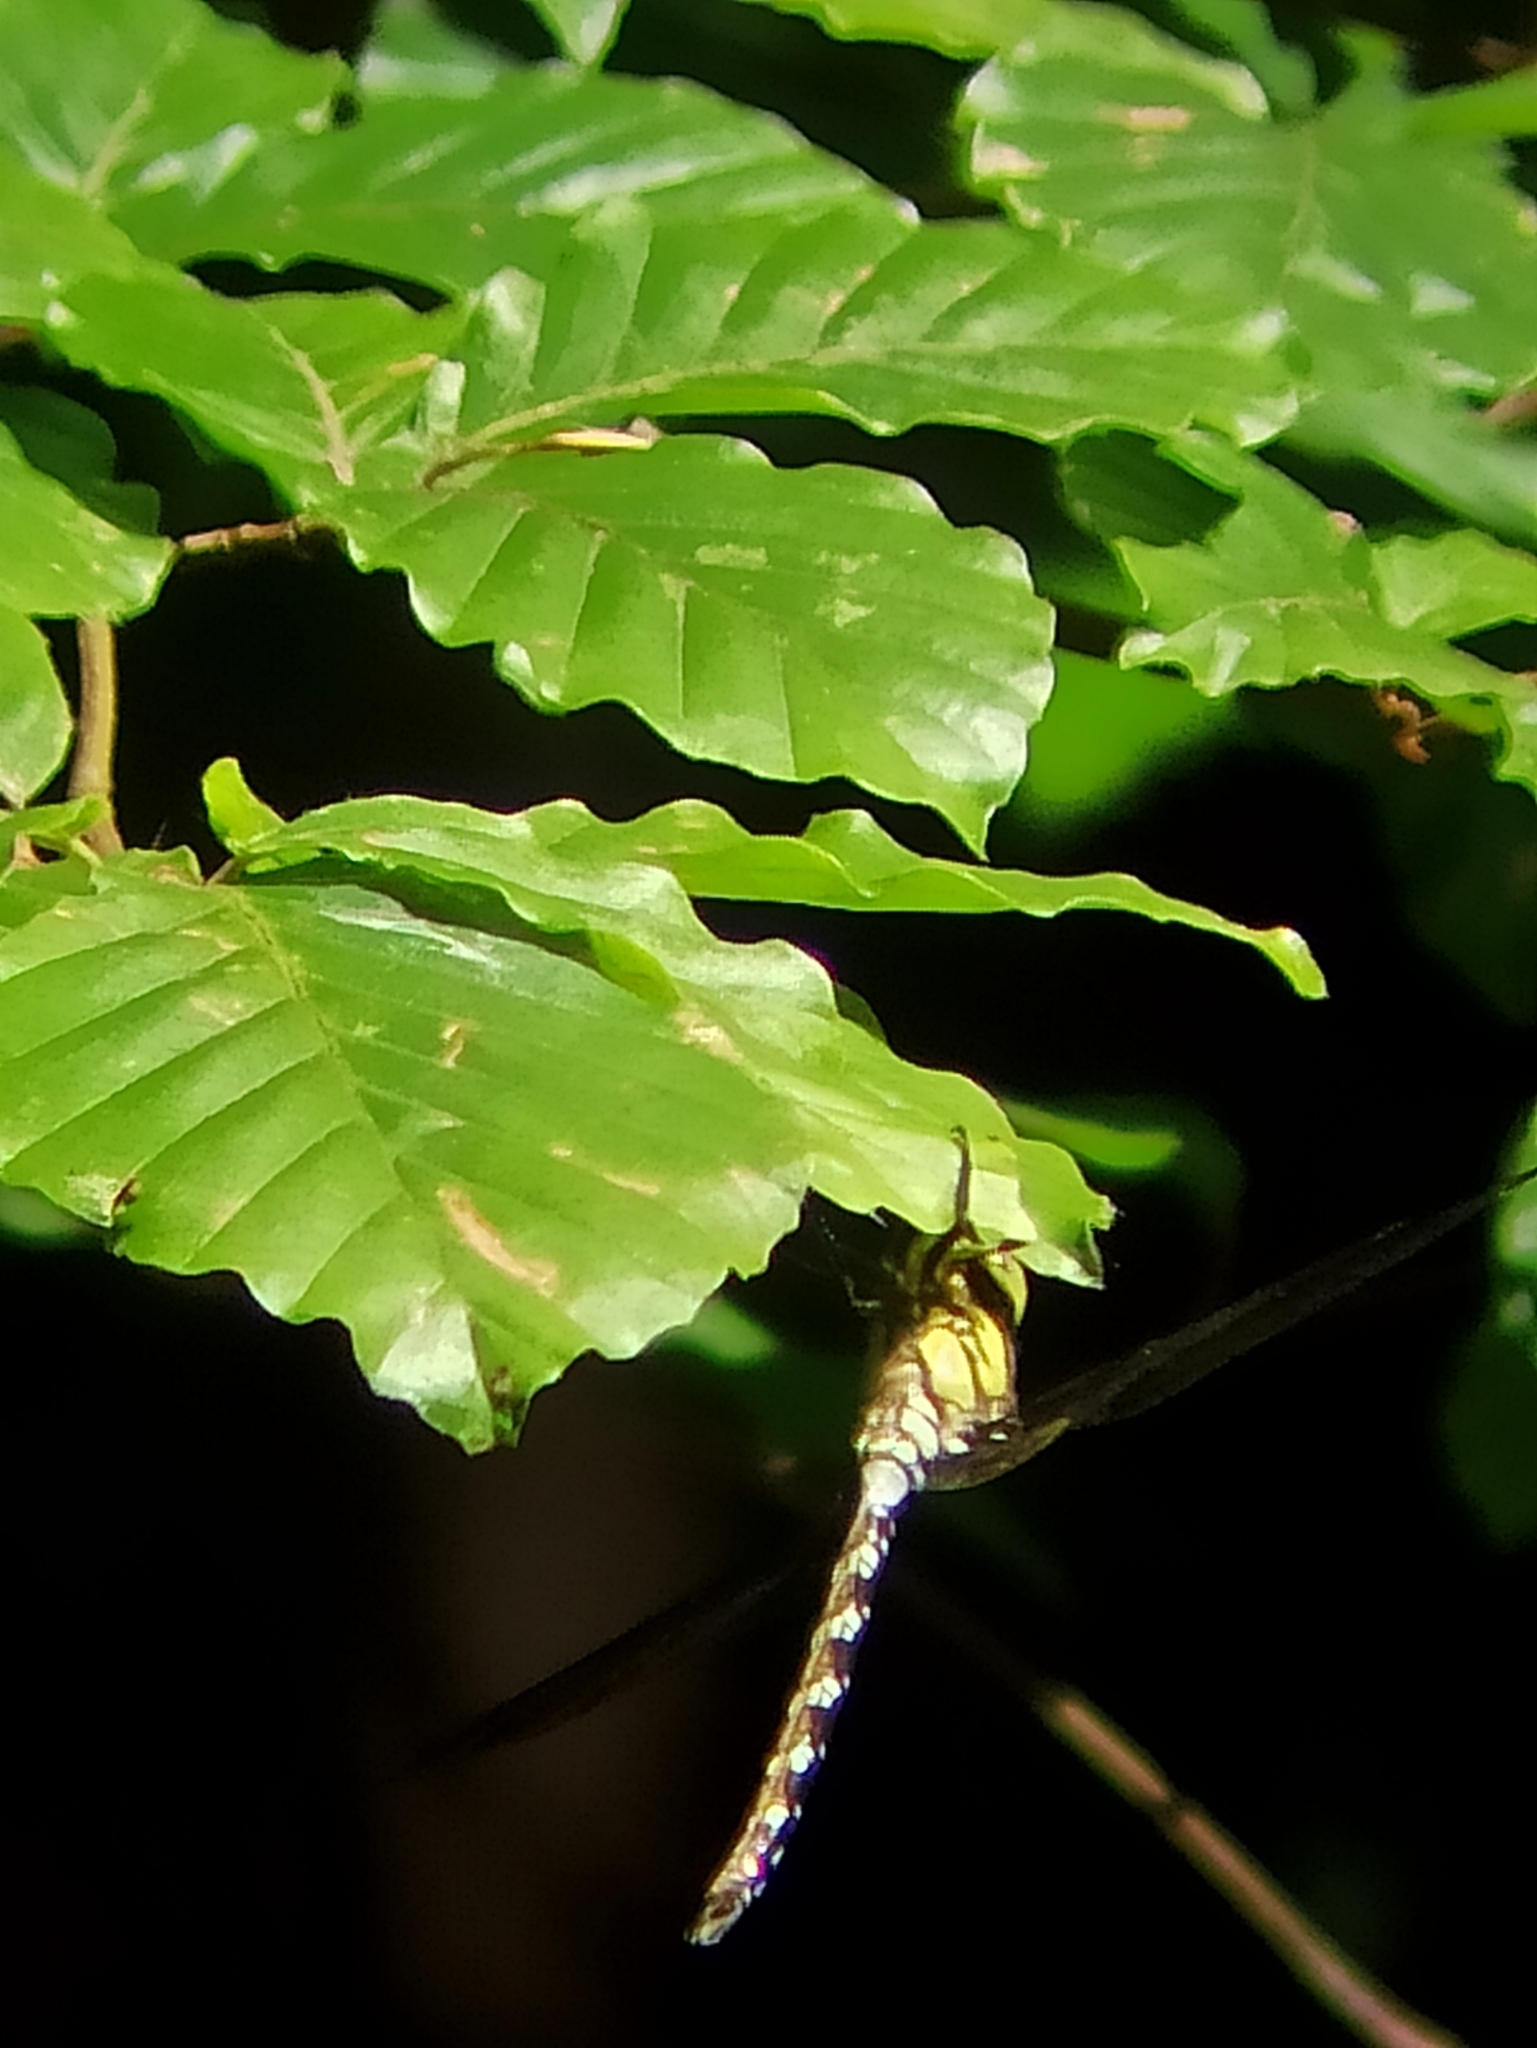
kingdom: Animalia
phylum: Arthropoda
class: Insecta
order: Odonata
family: Aeshnidae
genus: Aeshna
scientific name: Aeshna cyanea
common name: Southern hawker
